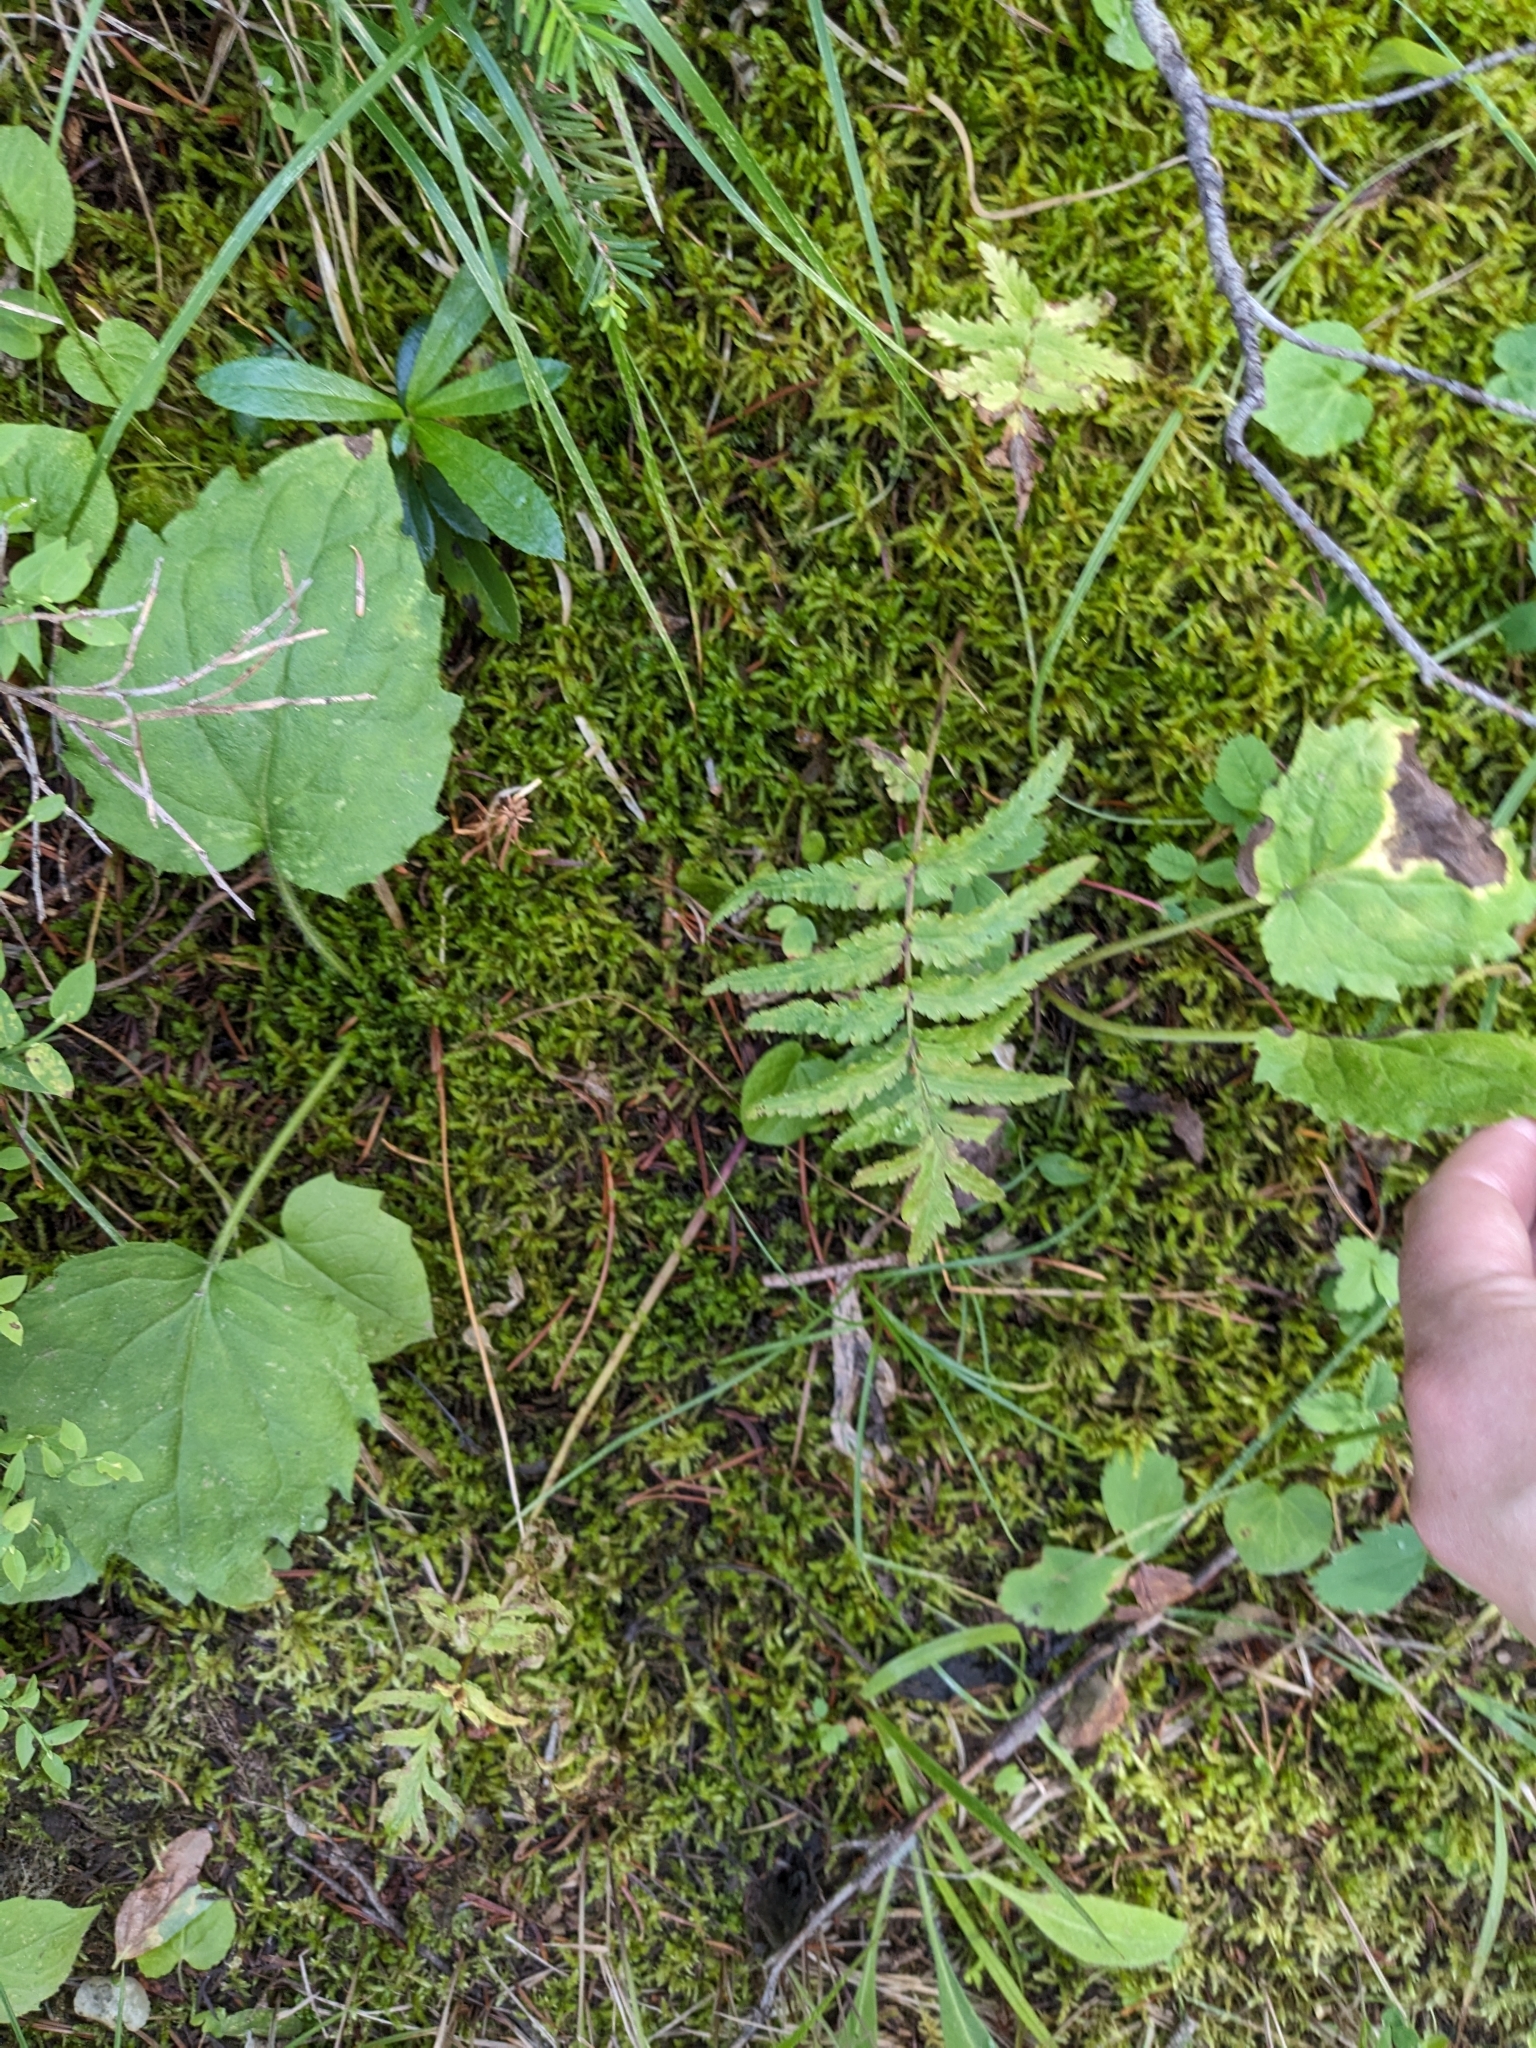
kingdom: Plantae
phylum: Tracheophyta
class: Magnoliopsida
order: Lamiales
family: Orobanchaceae
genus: Pedicularis
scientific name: Pedicularis bracteosa
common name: Bracted lousewort
